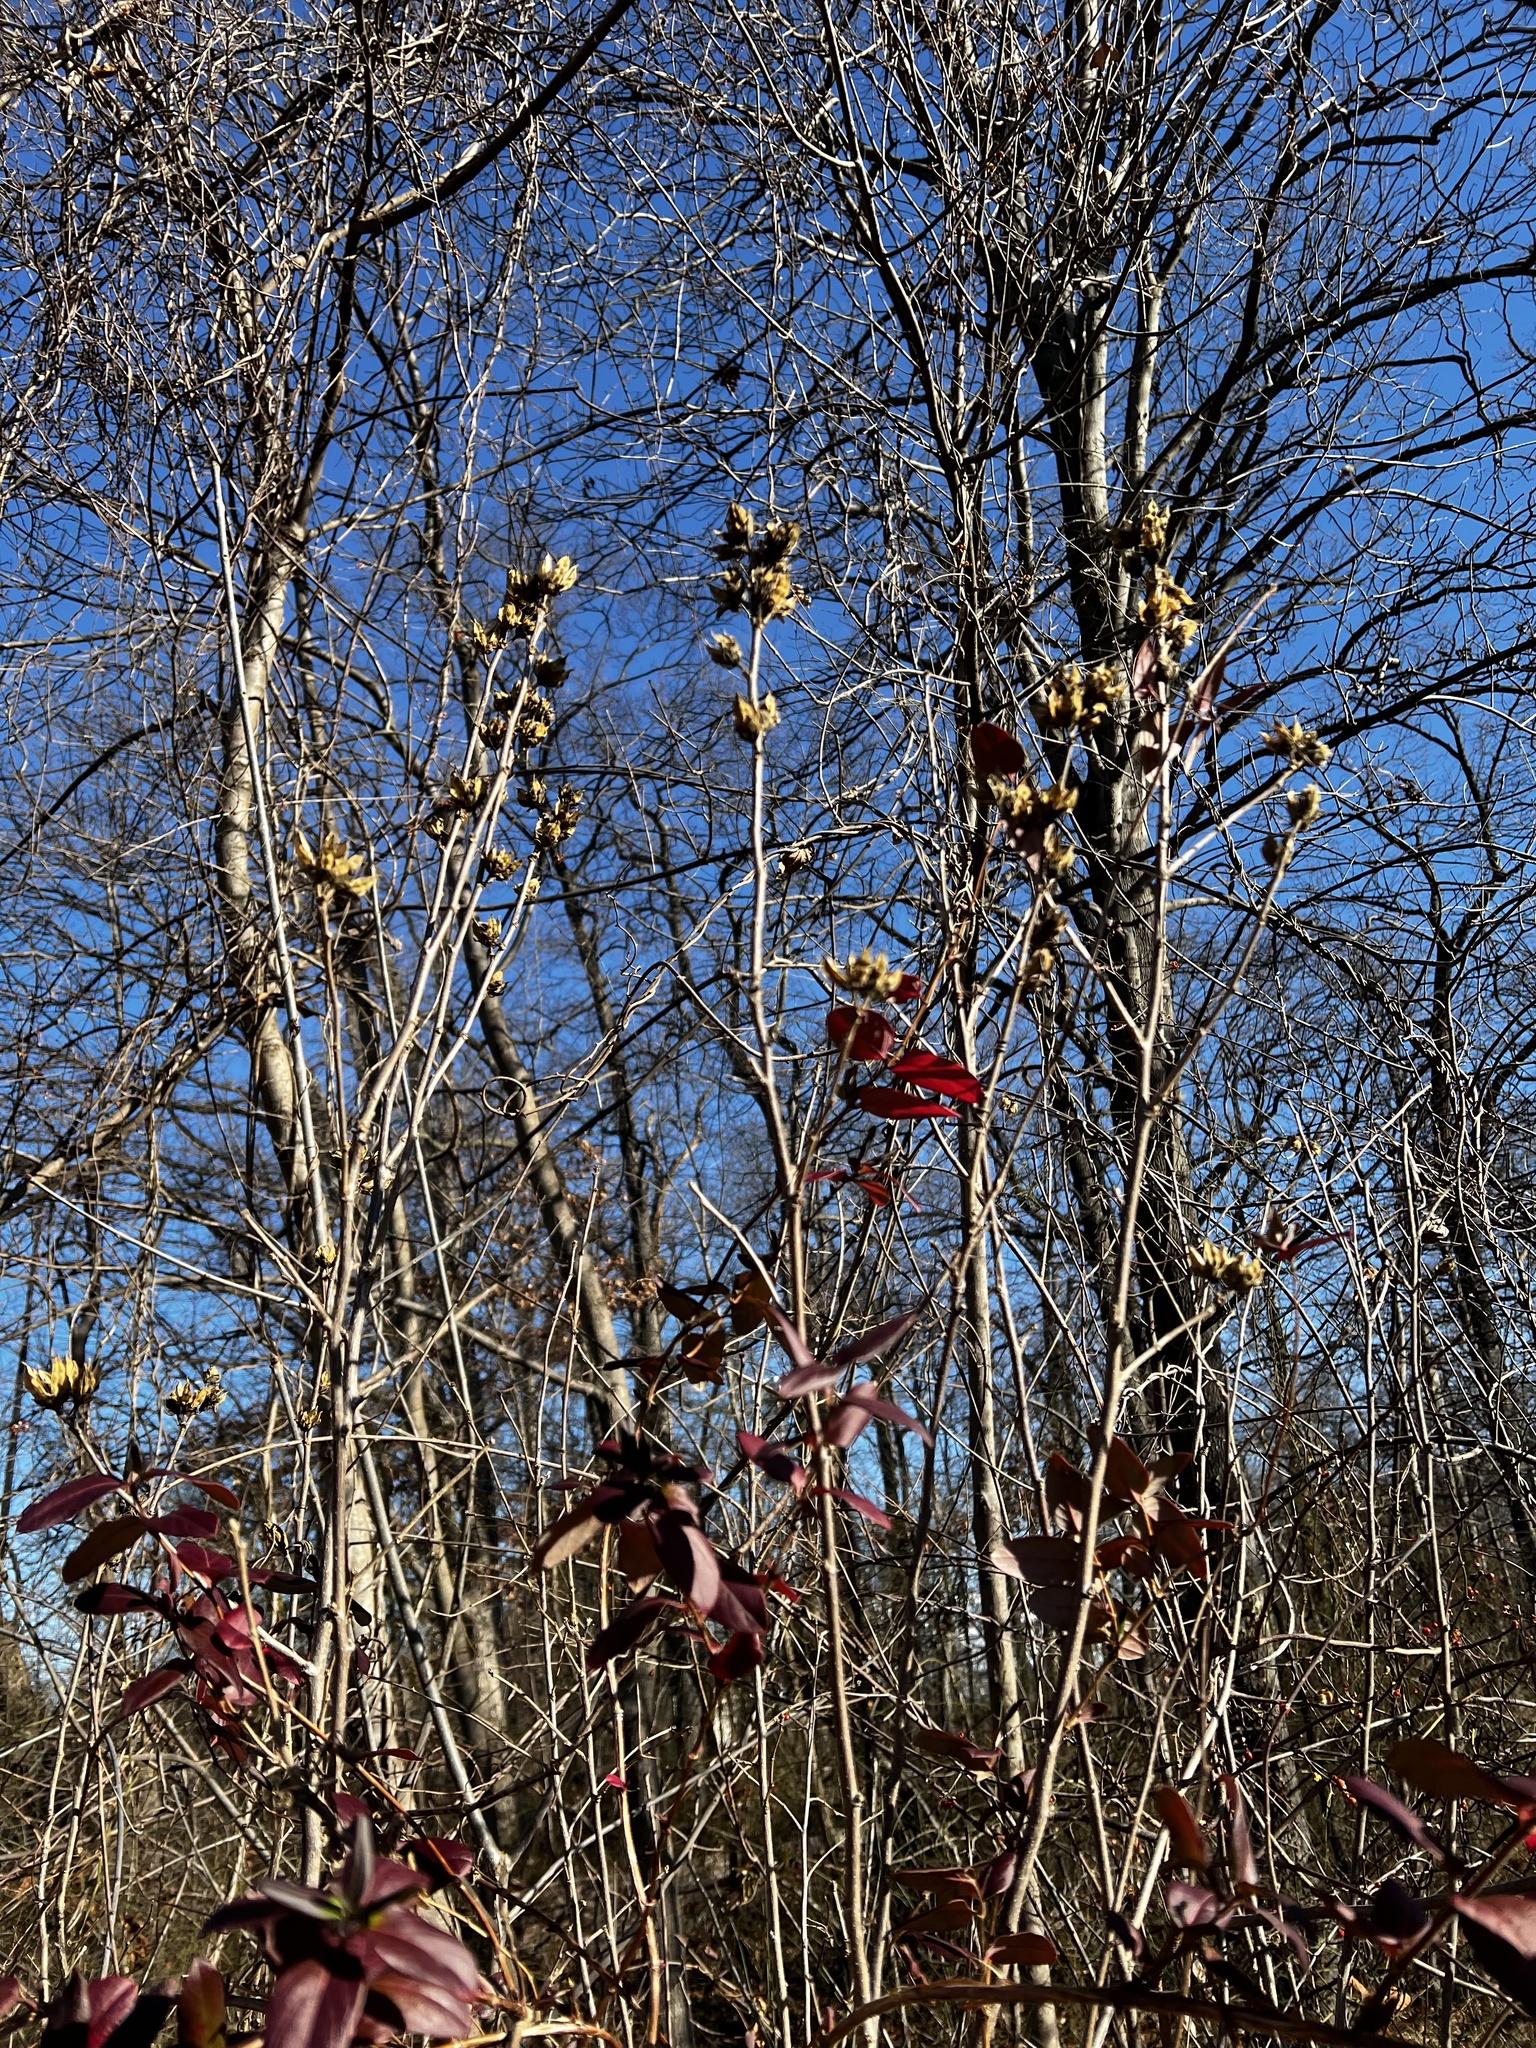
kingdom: Plantae
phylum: Tracheophyta
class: Magnoliopsida
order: Malvales
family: Malvaceae
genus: Hibiscus
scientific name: Hibiscus syriacus
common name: Syrian ketmia
